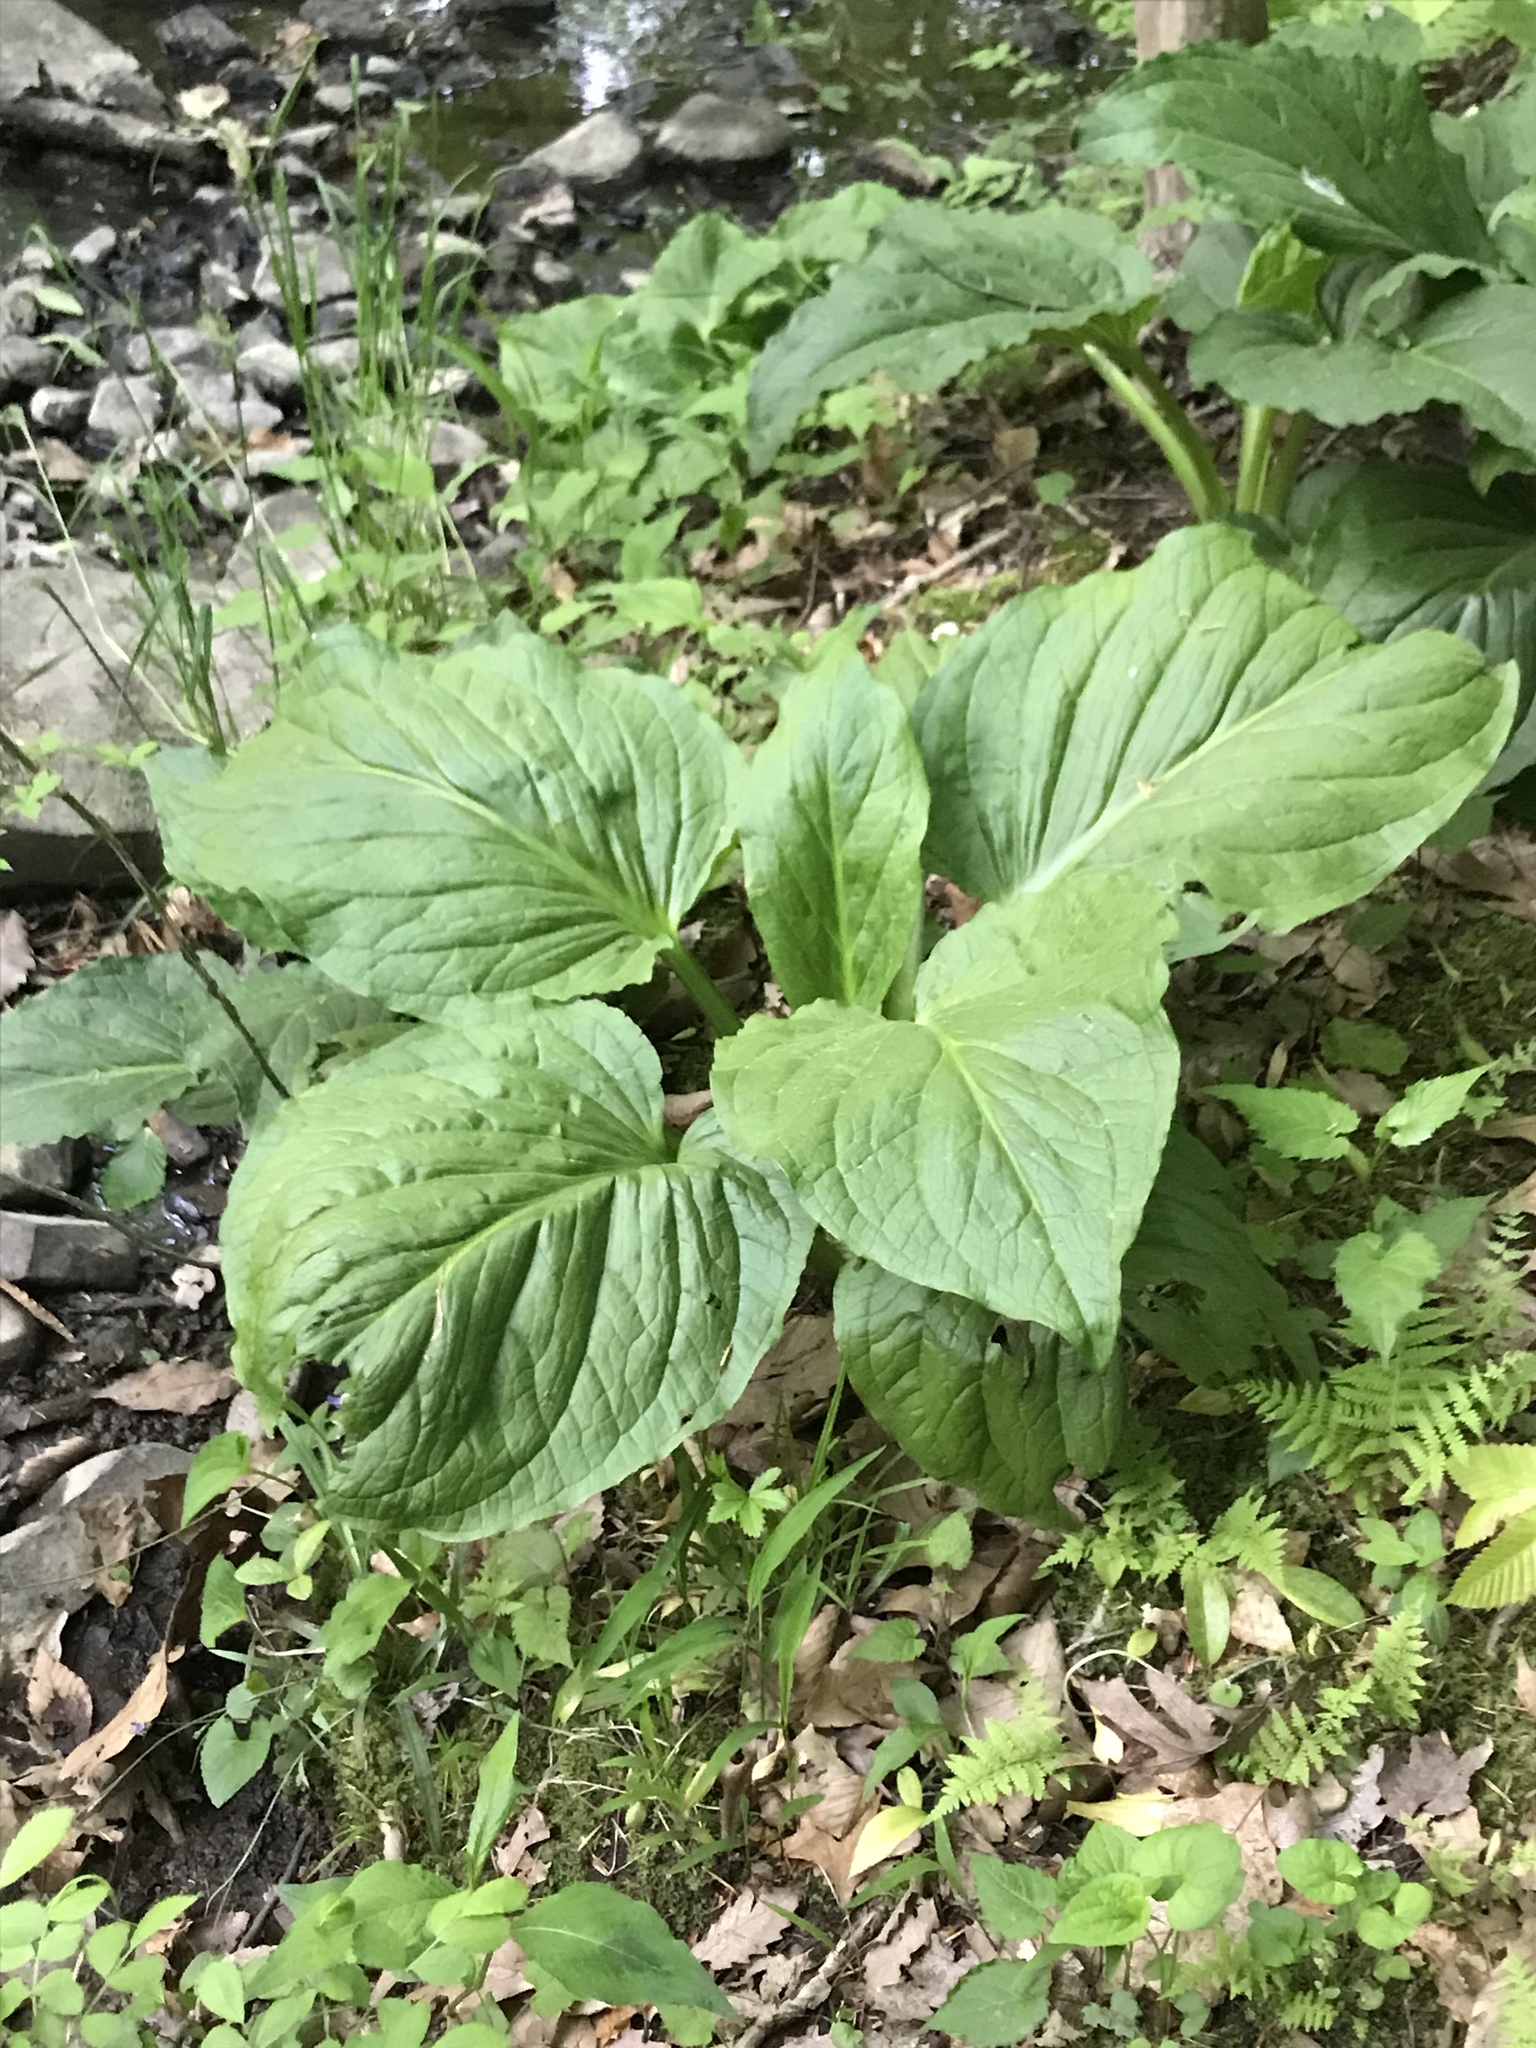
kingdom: Plantae
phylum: Tracheophyta
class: Liliopsida
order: Alismatales
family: Araceae
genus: Symplocarpus
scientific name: Symplocarpus foetidus
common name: Eastern skunk cabbage
